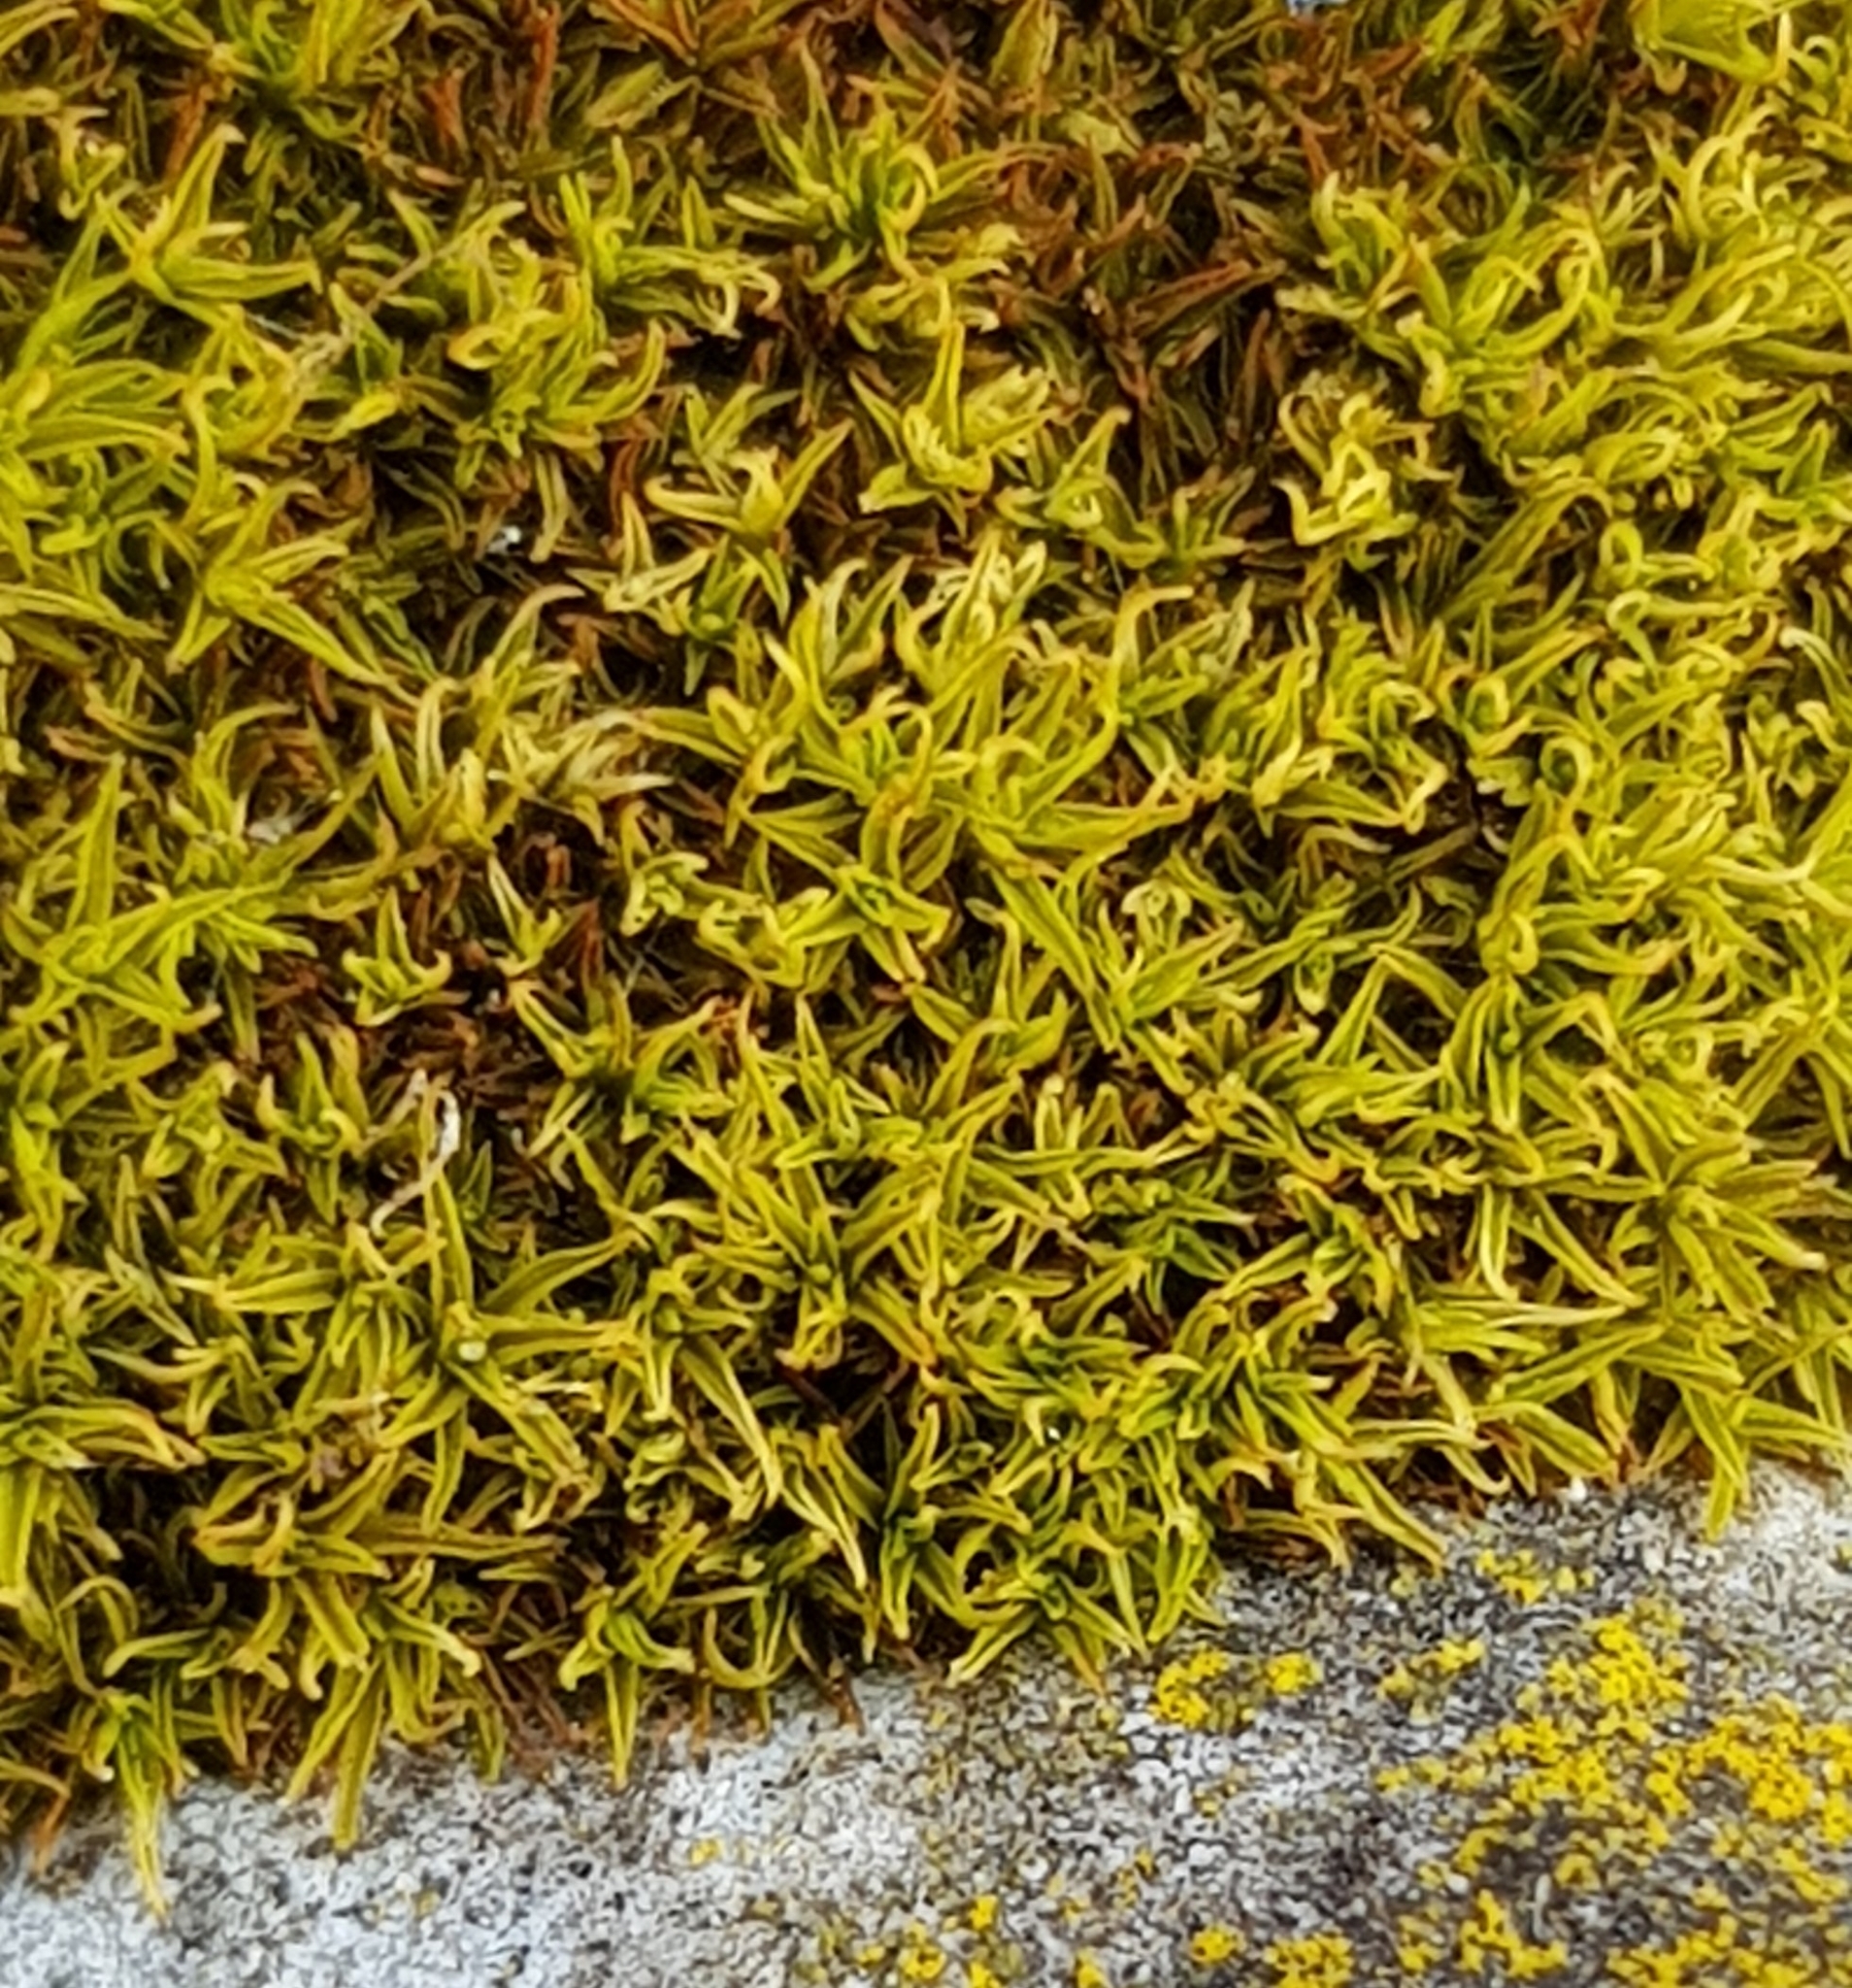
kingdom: Plantae
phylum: Bryophyta
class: Bryopsida
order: Pottiales
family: Pottiaceae
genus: Trichostomum
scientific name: Trichostomum crispulum
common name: Curly crisp-moss
